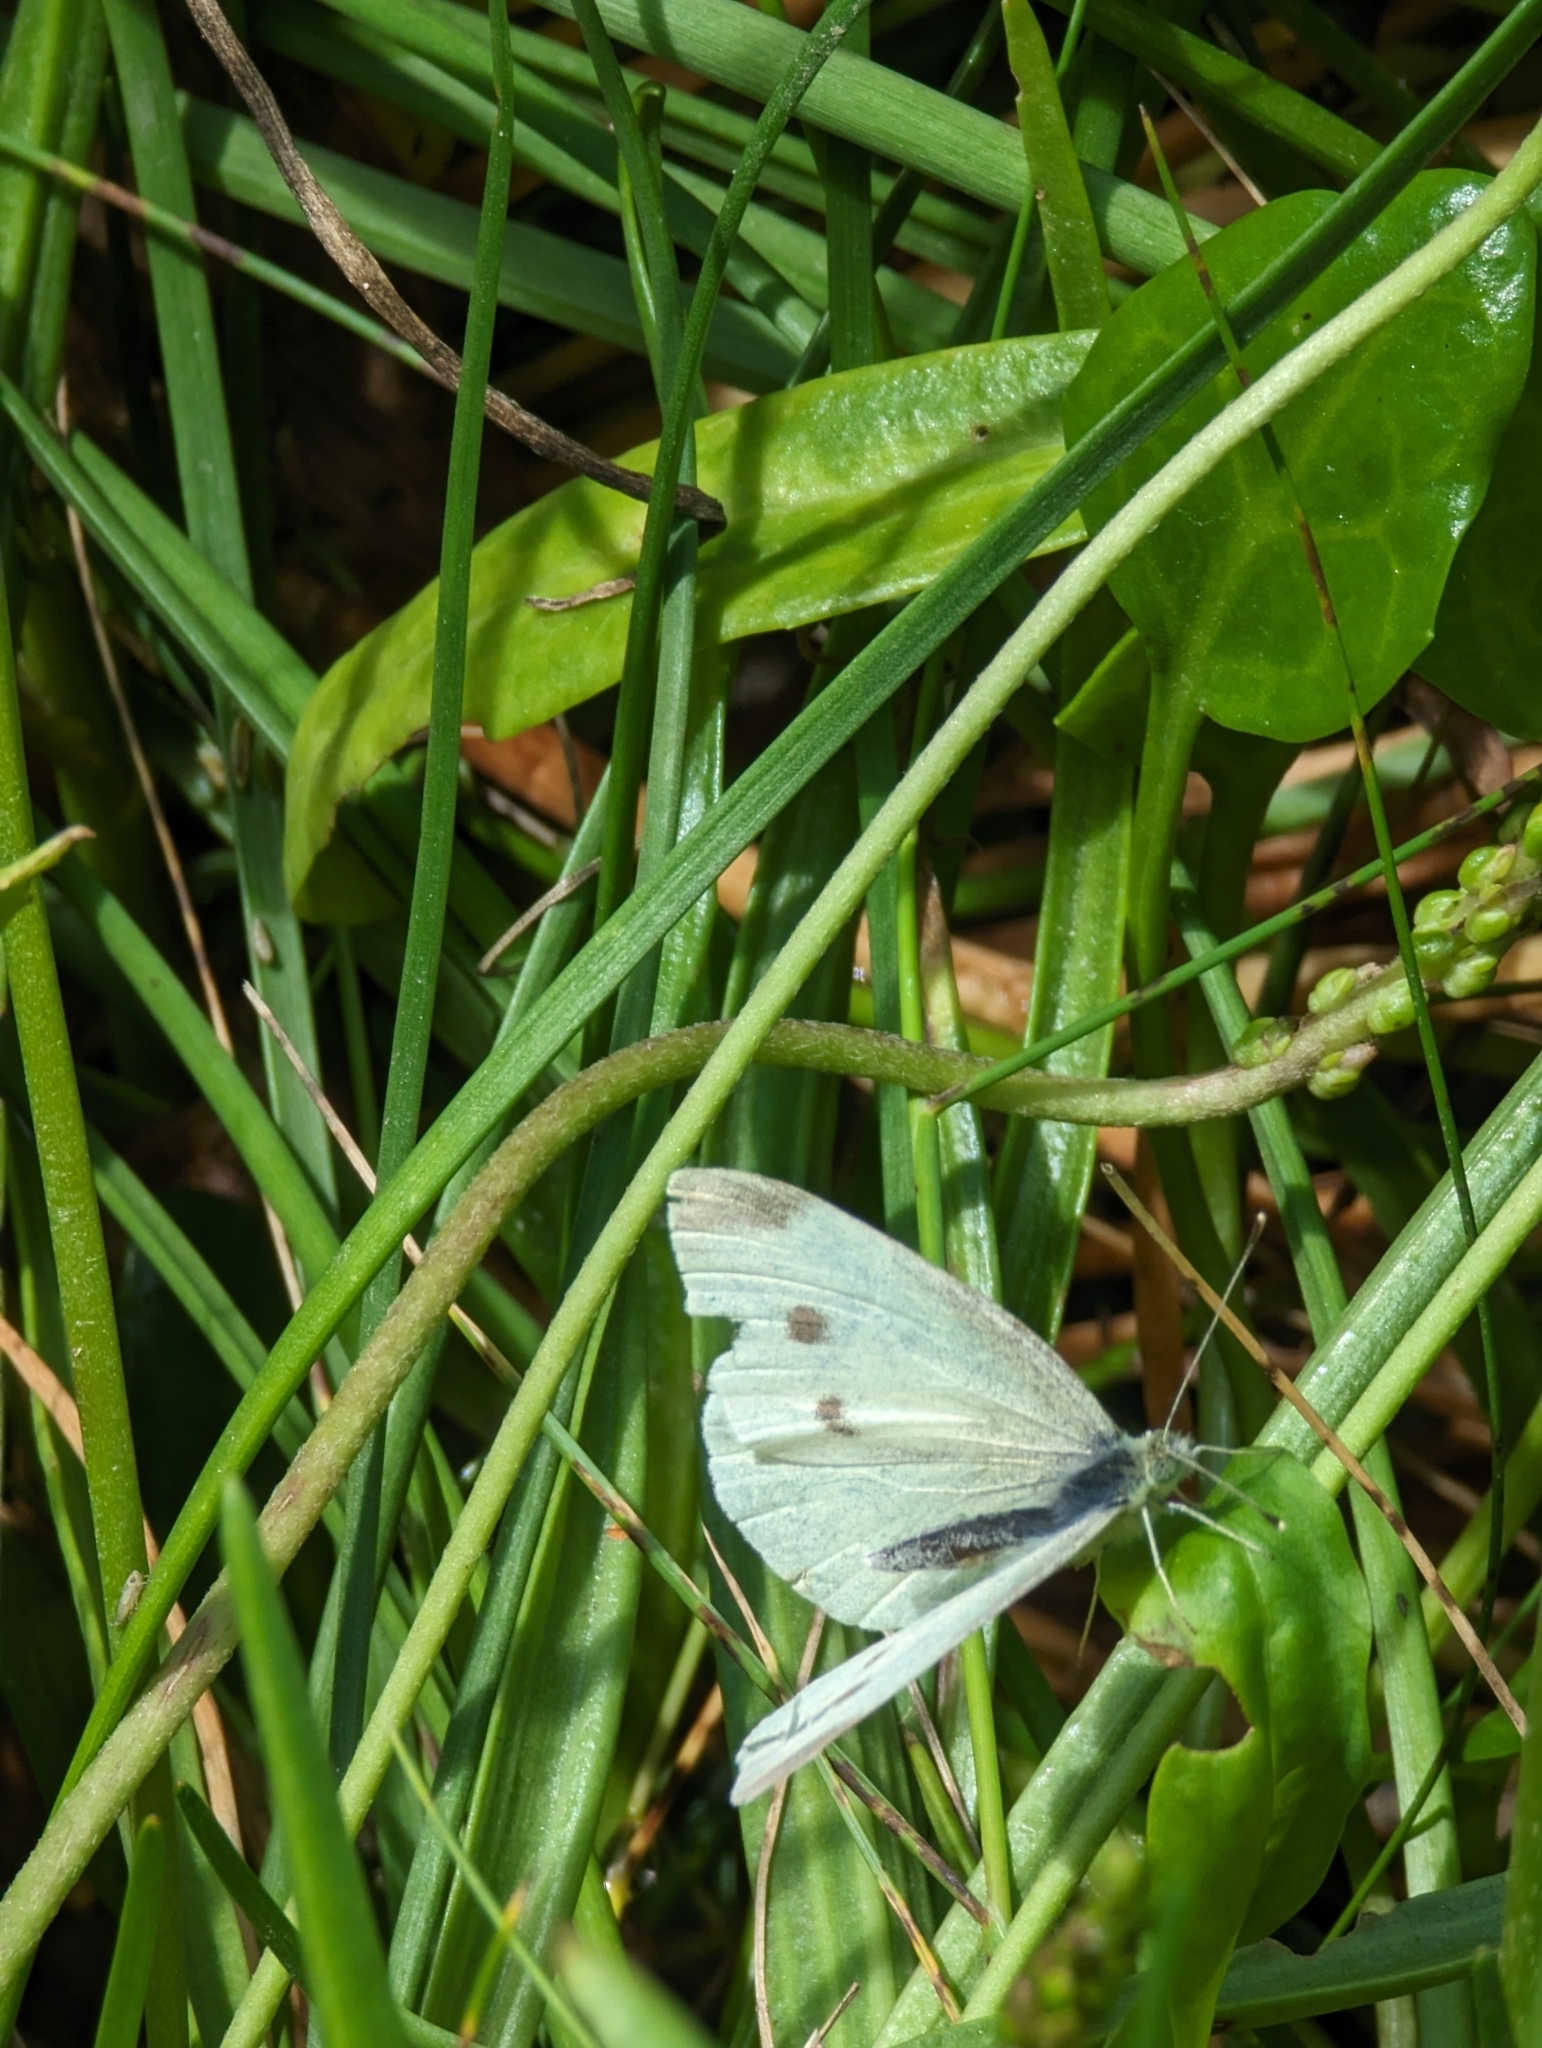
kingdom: Animalia
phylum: Arthropoda
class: Insecta
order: Lepidoptera
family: Pieridae
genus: Pieris
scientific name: Pieris rapae
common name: Small white
